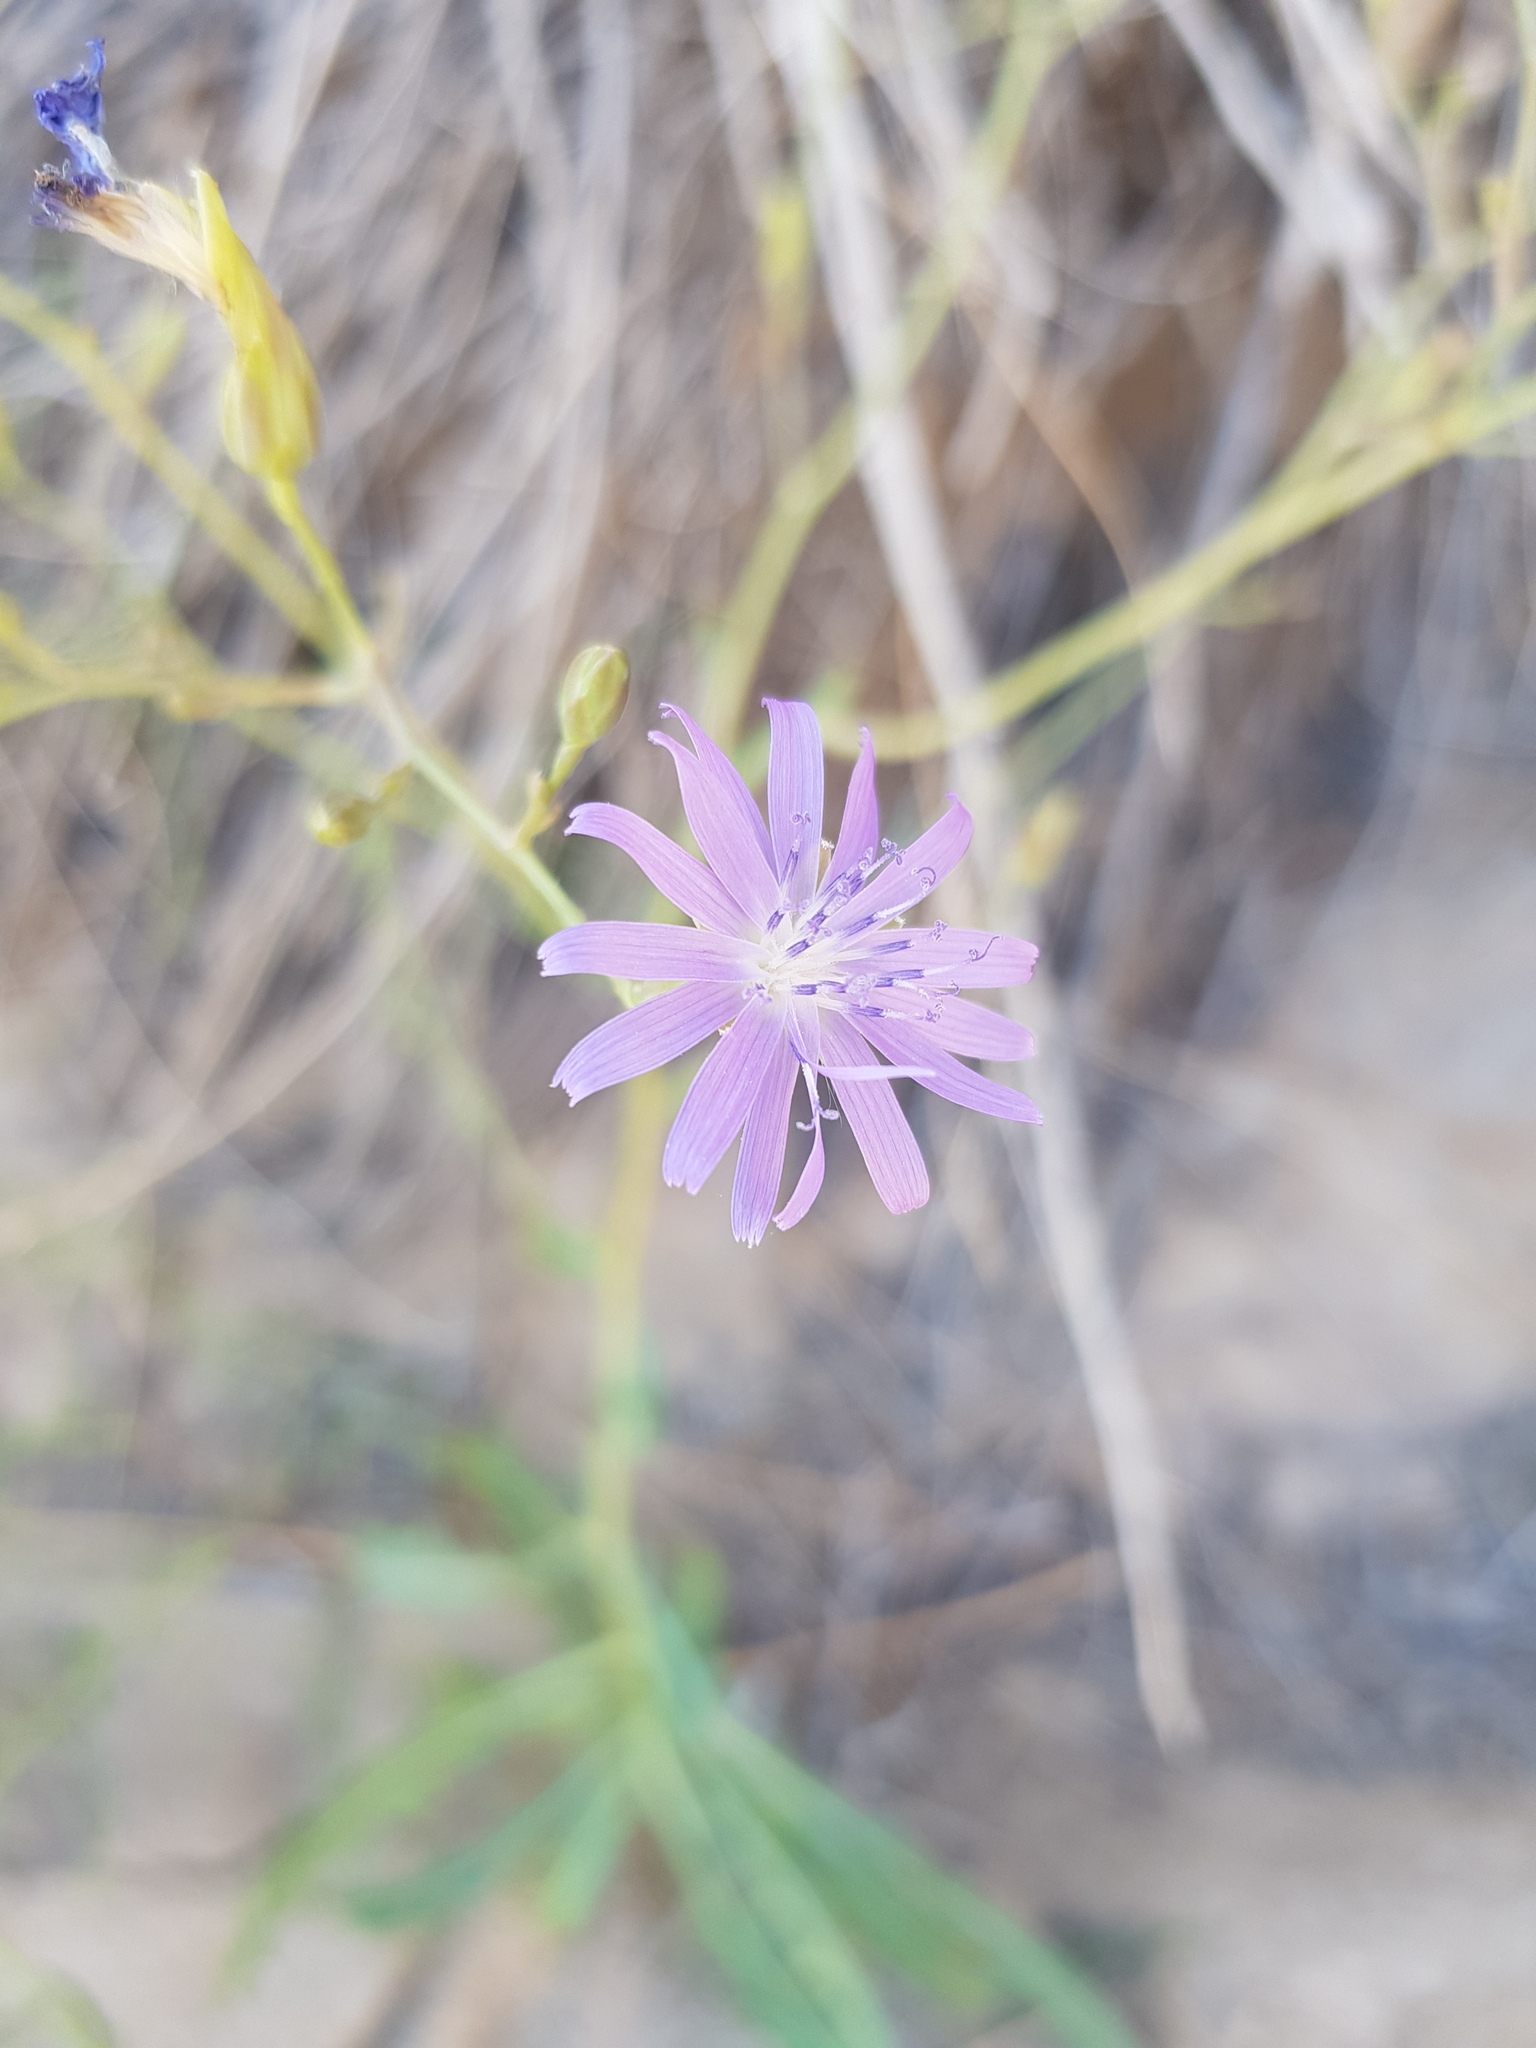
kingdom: Plantae
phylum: Tracheophyta
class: Magnoliopsida
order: Asterales
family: Asteraceae
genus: Lactuca
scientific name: Lactuca tatarica
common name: Blue lettuce
